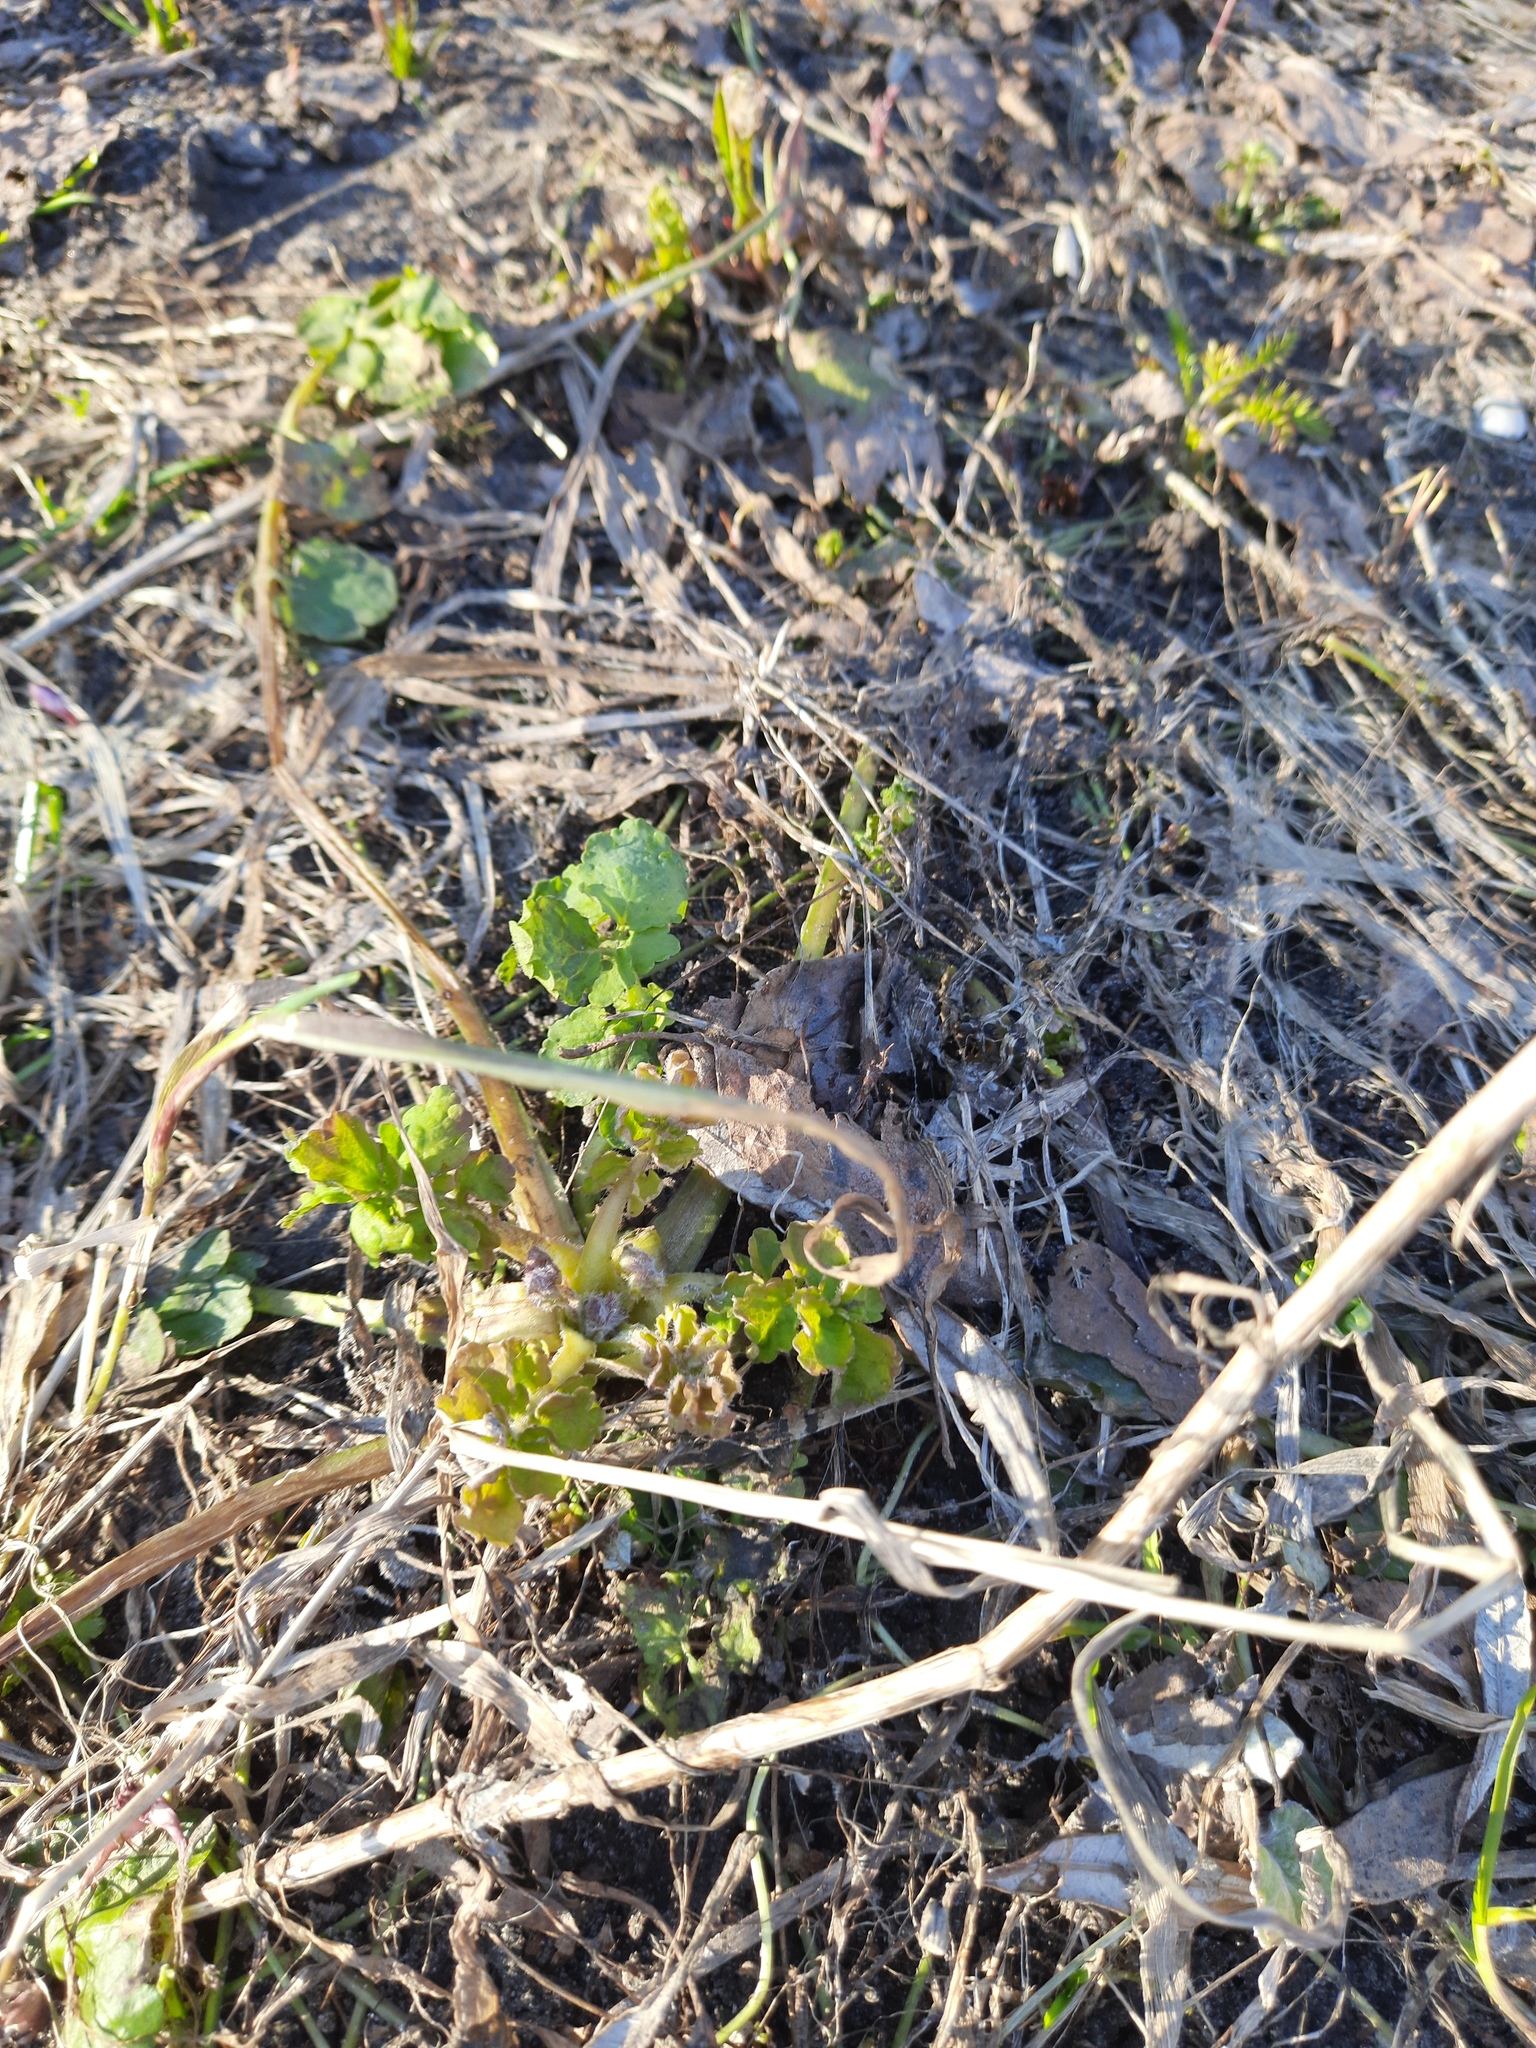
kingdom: Plantae
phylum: Tracheophyta
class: Magnoliopsida
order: Ranunculales
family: Papaveraceae
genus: Chelidonium
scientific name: Chelidonium majus
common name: Greater celandine
